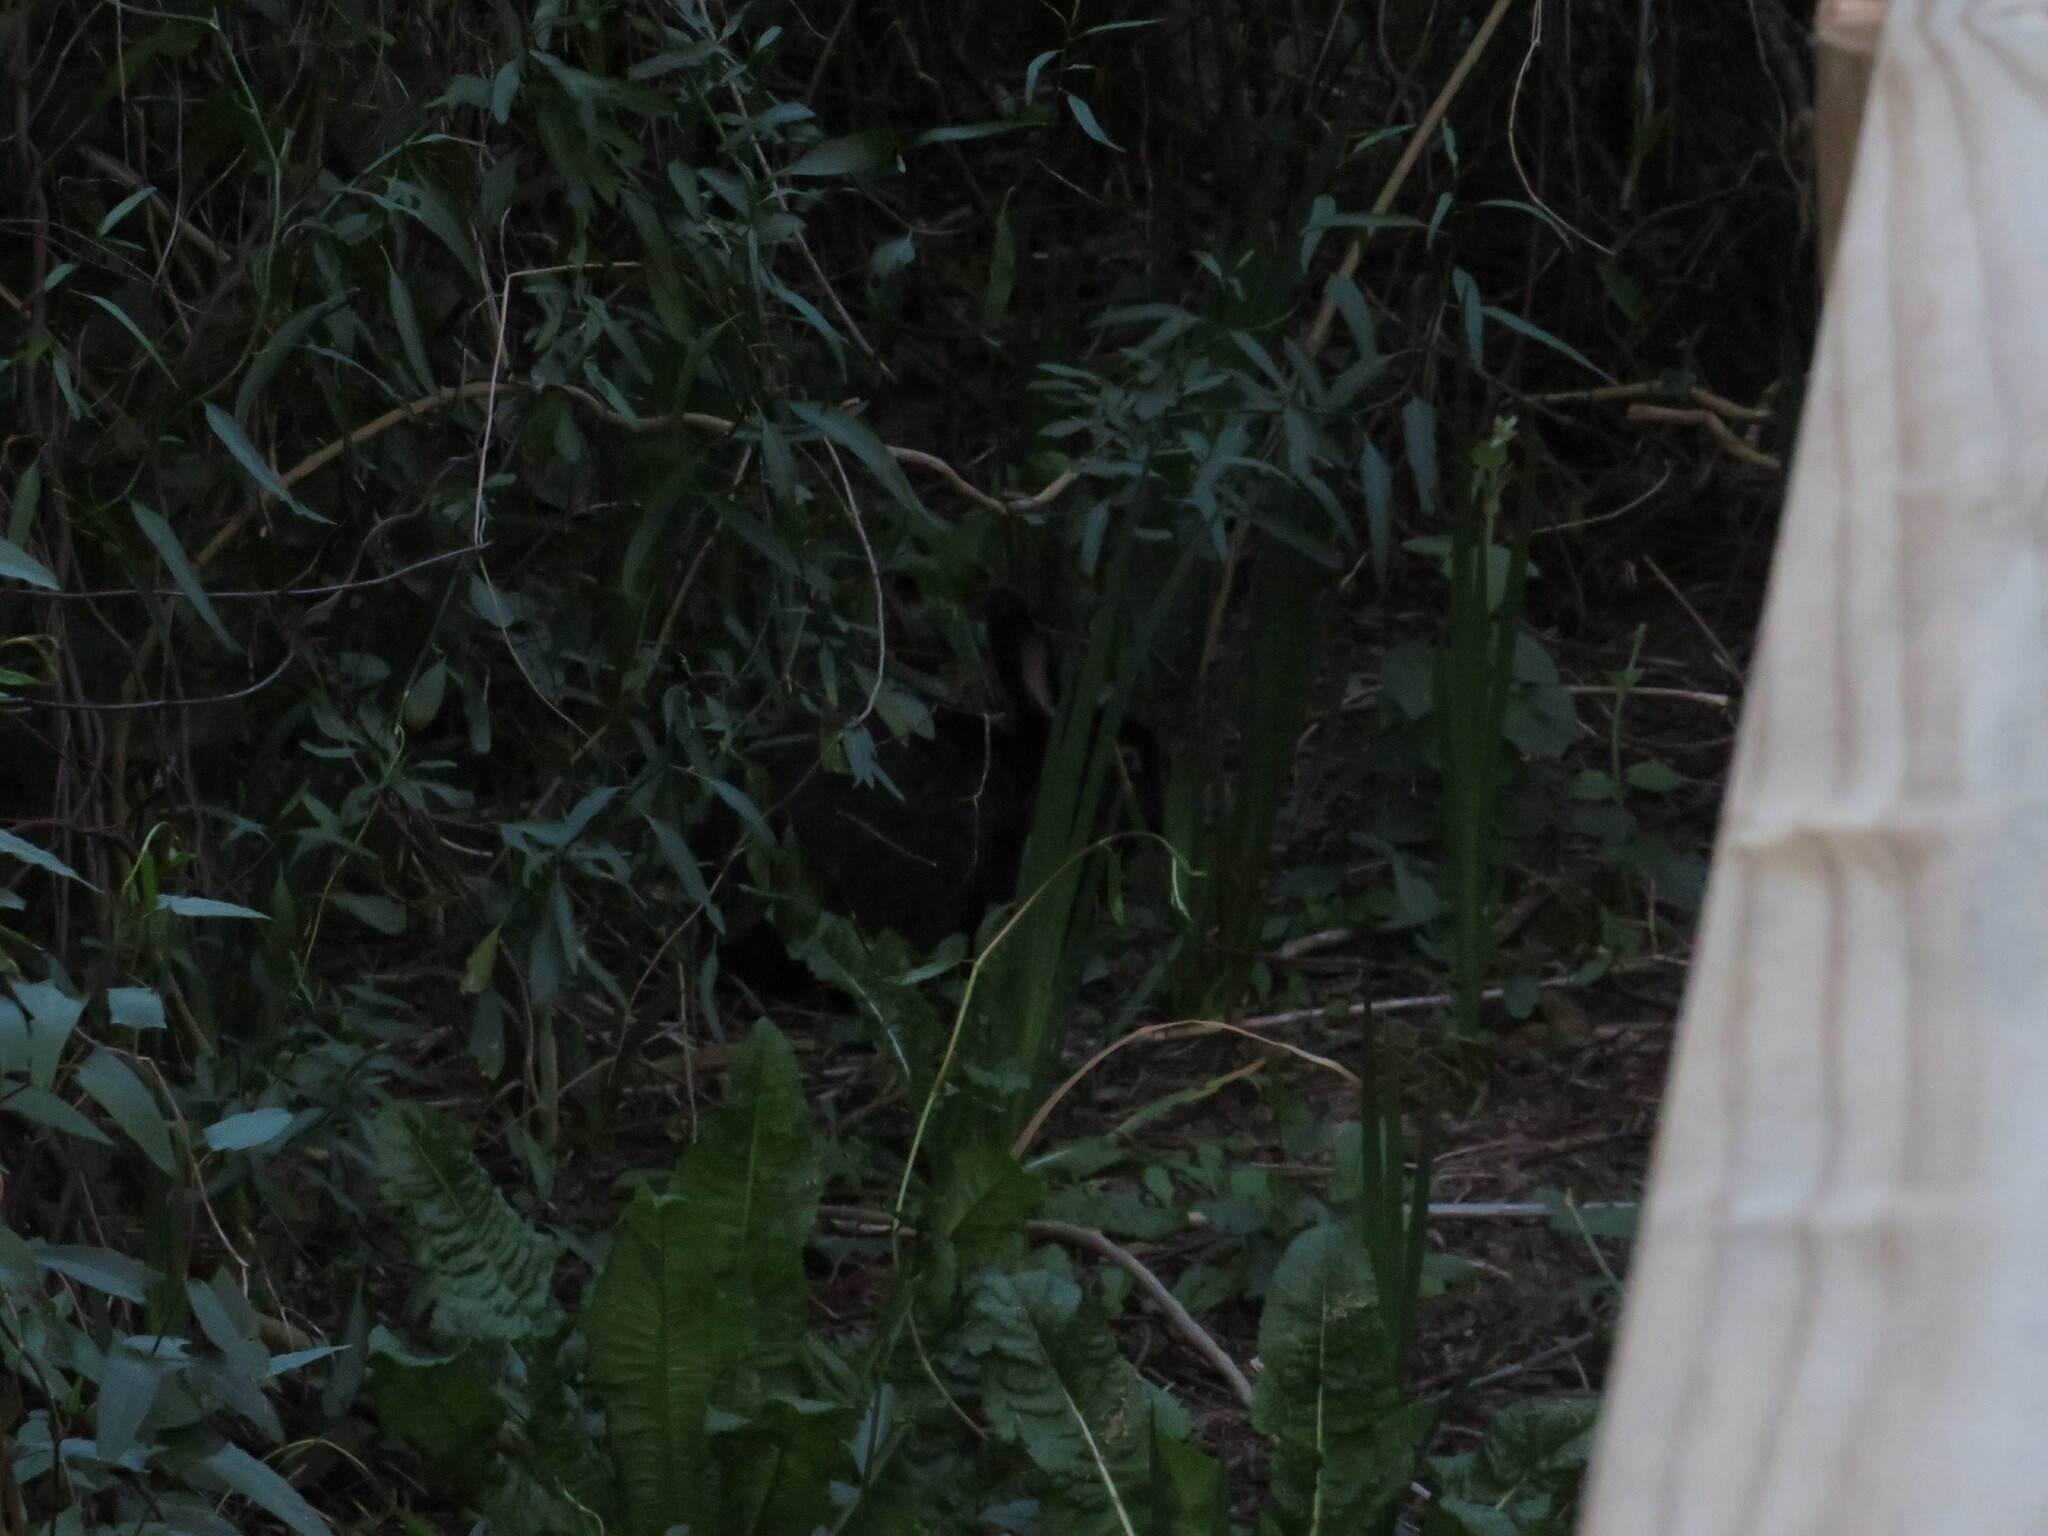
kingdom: Animalia
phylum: Chordata
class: Mammalia
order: Lagomorpha
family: Leporidae
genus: Oryctolagus
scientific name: Oryctolagus cuniculus
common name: European rabbit
